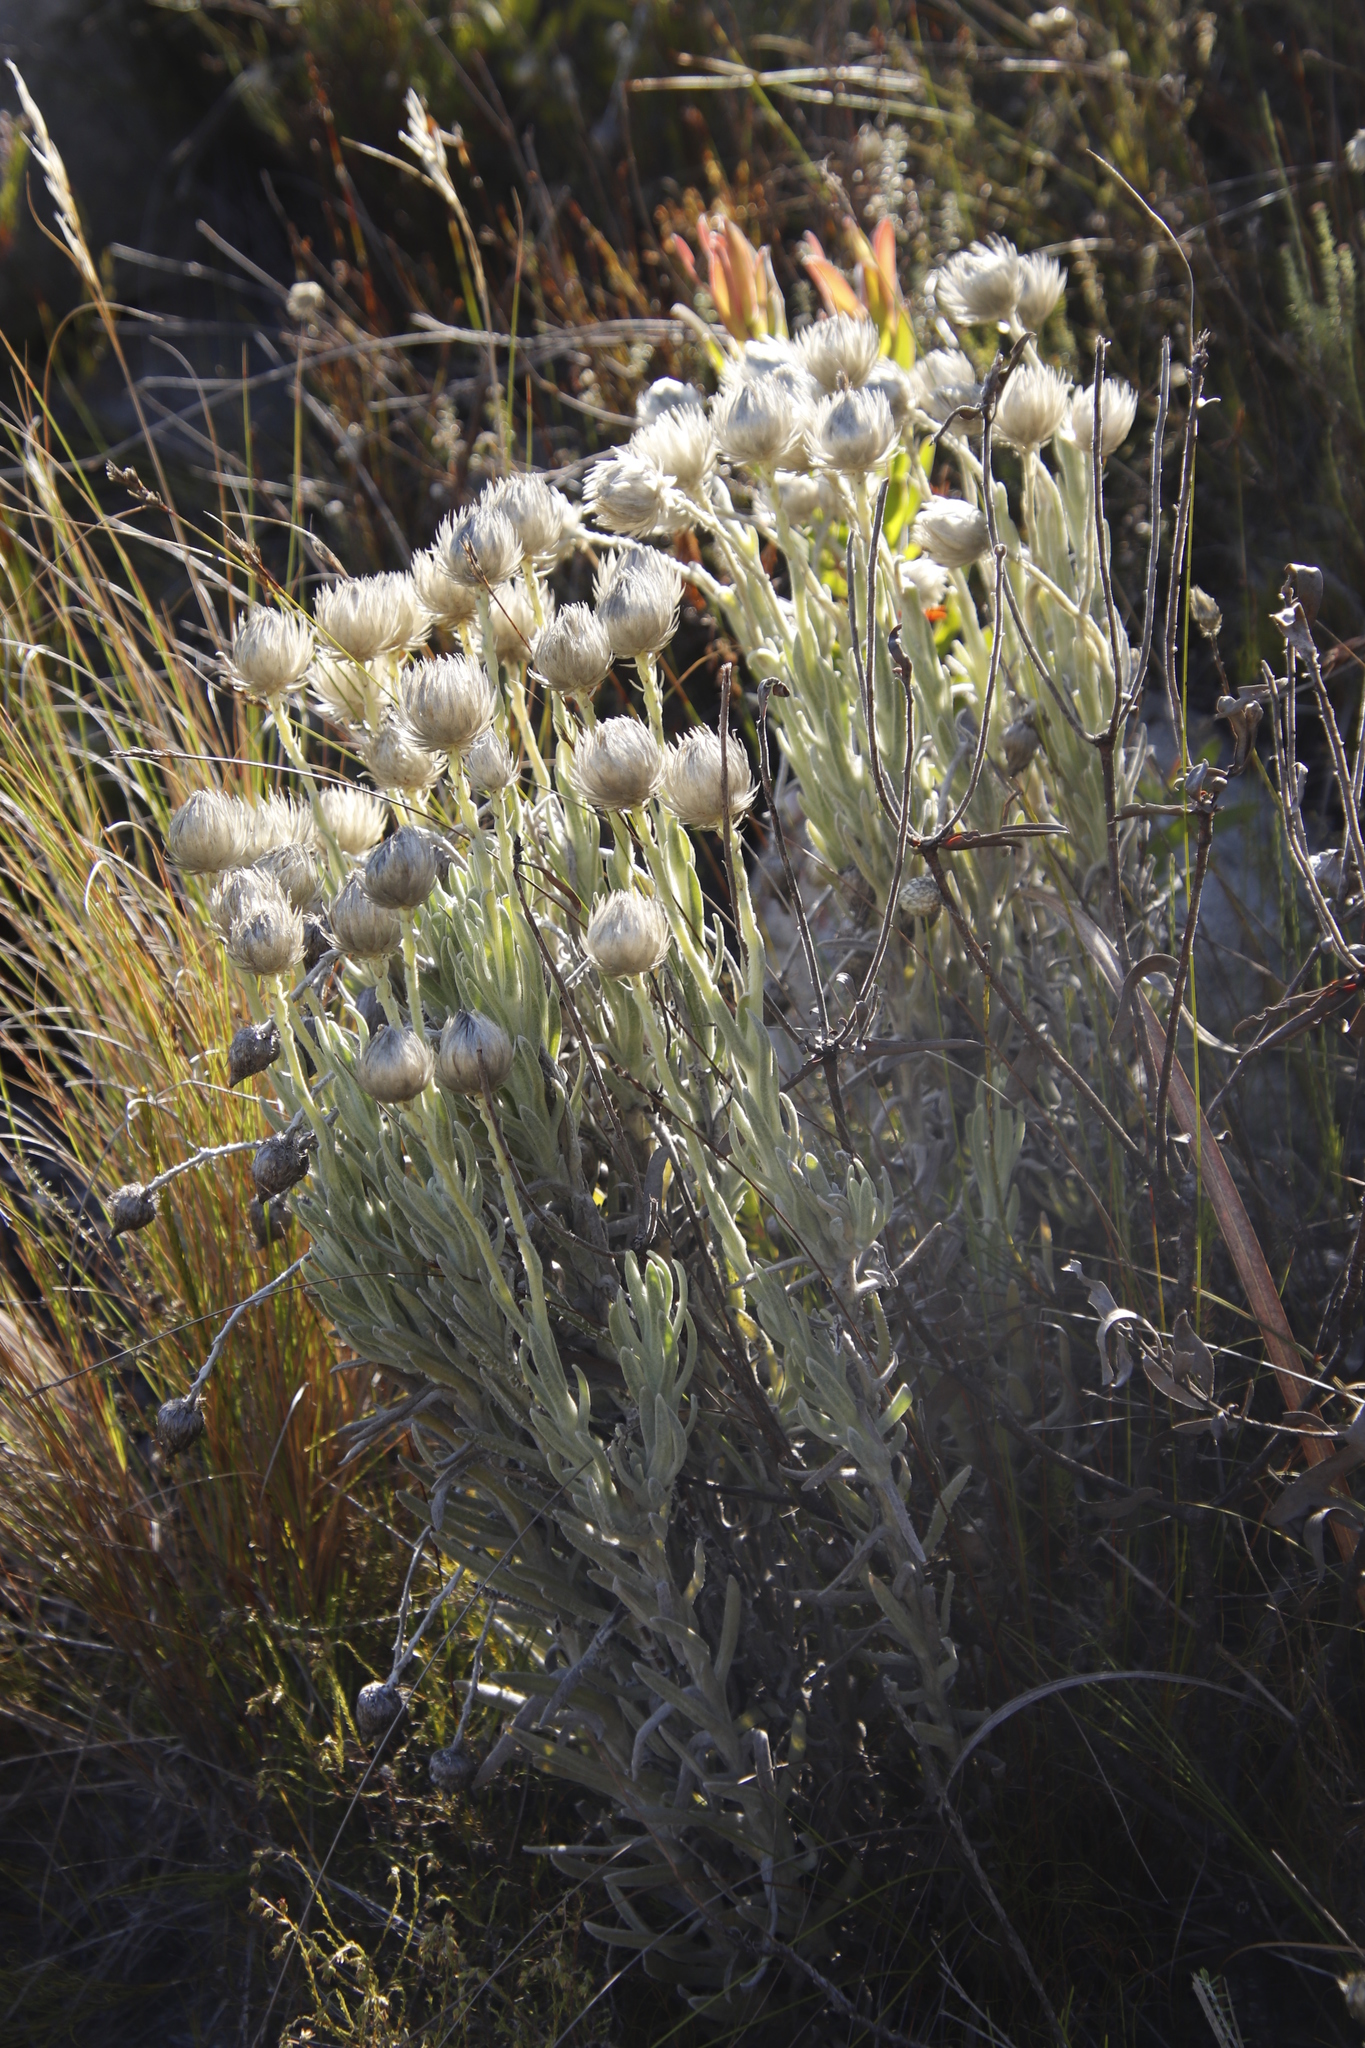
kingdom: Plantae
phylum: Tracheophyta
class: Magnoliopsida
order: Asterales
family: Asteraceae
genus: Syncarpha
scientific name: Syncarpha vestita
